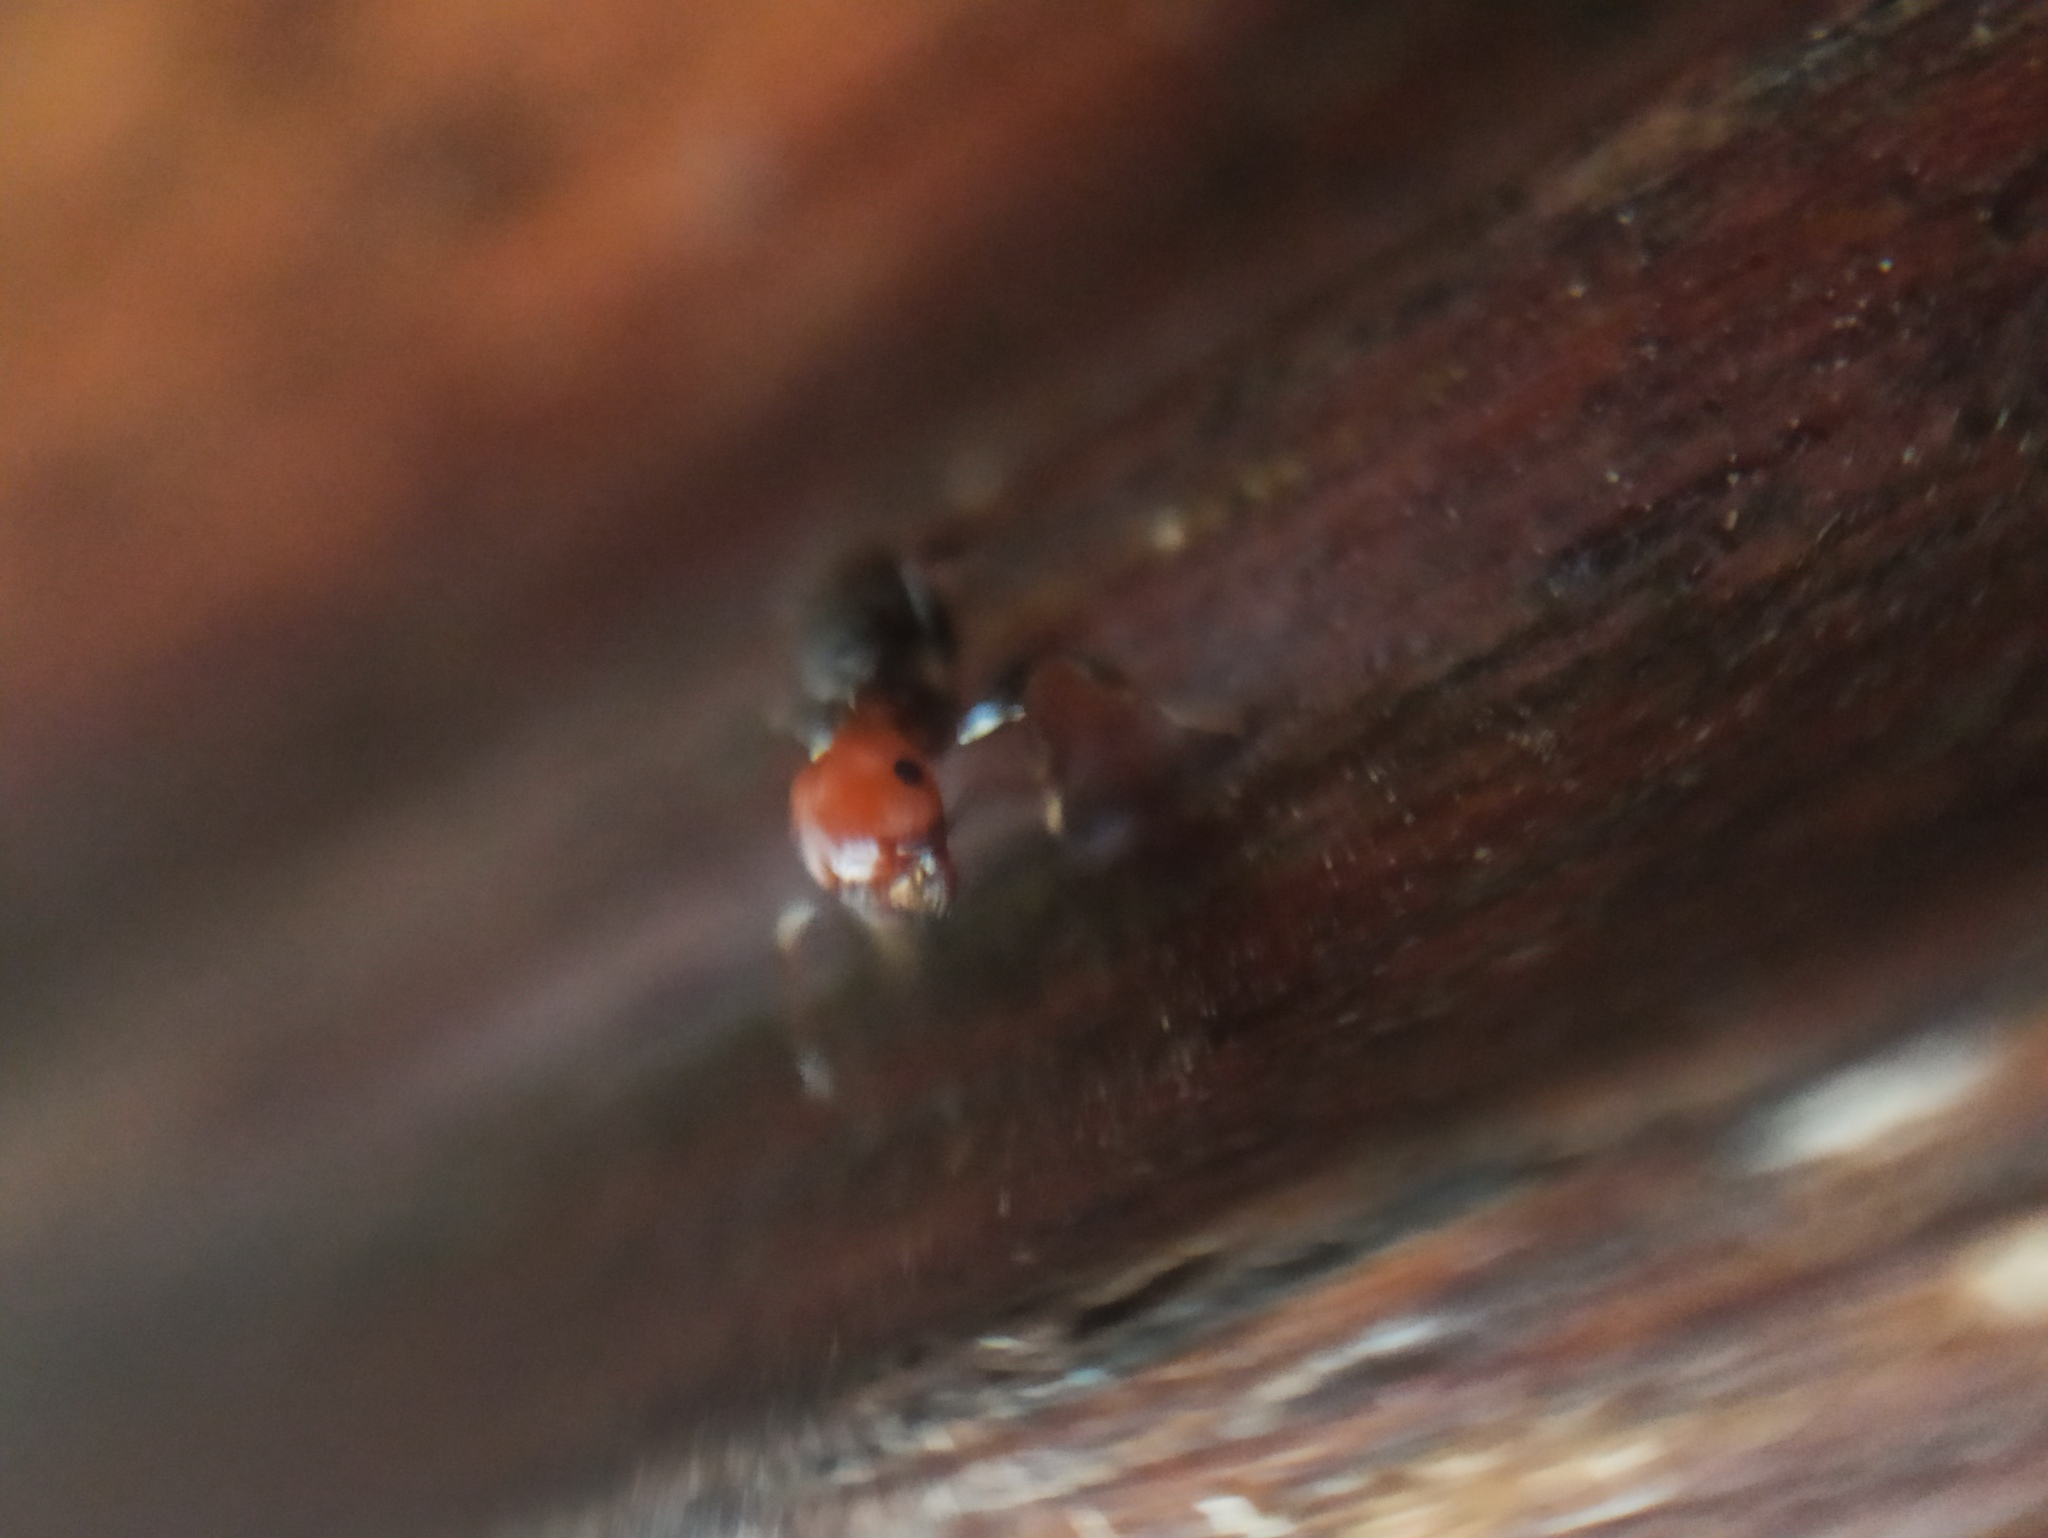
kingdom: Animalia
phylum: Arthropoda
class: Insecta
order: Hymenoptera
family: Formicidae
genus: Crematogaster
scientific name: Crematogaster scutellaris
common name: Fourmi du liège
